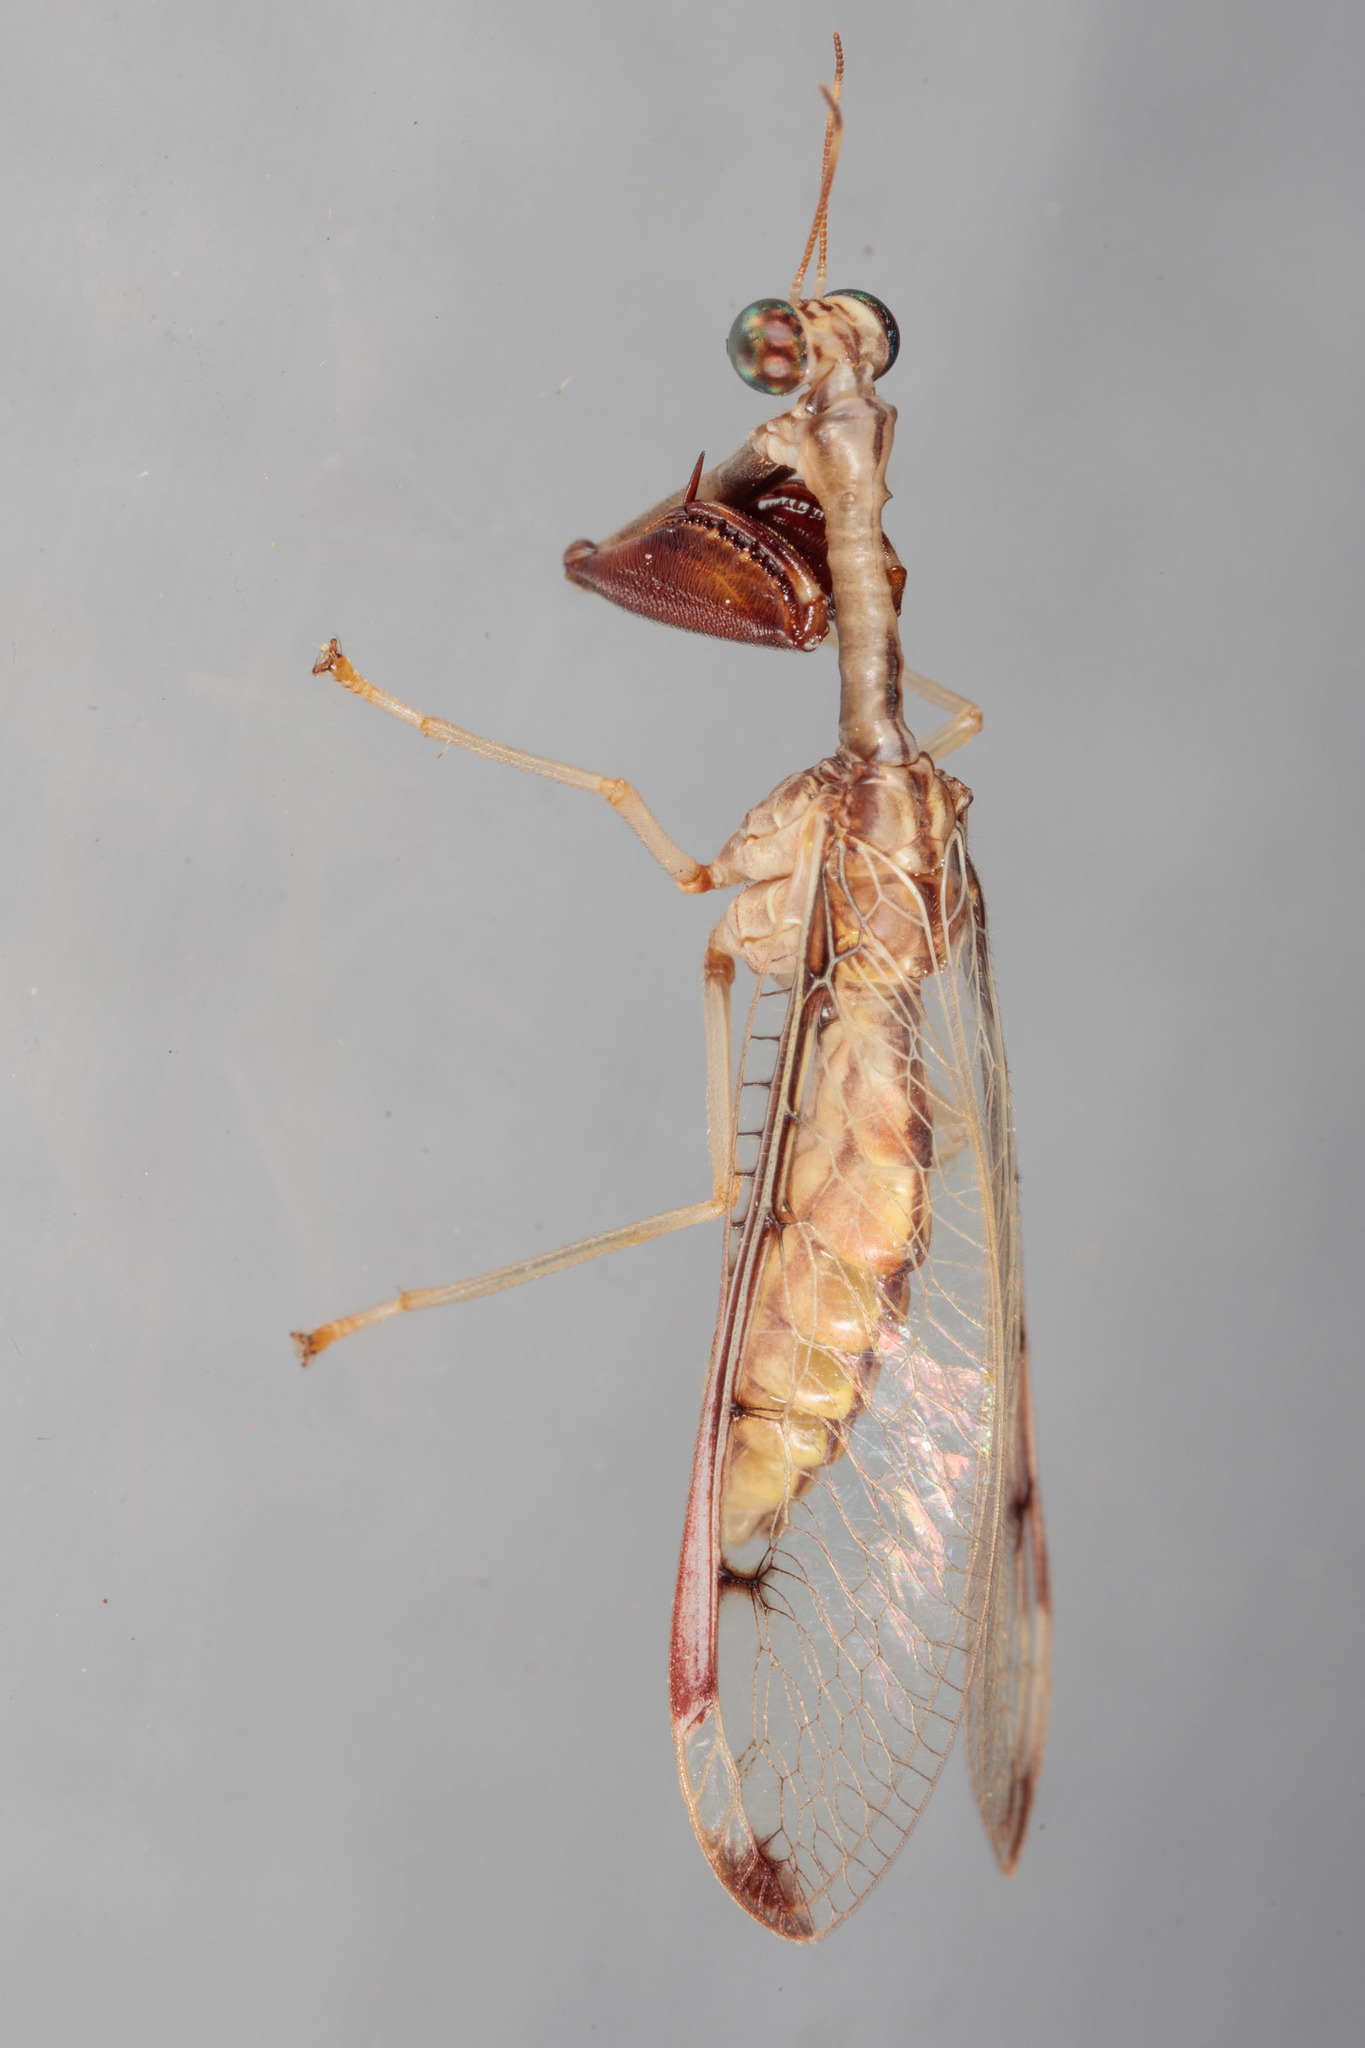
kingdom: Animalia
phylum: Arthropoda
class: Insecta
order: Neuroptera
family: Mantispidae
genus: Dicromantispa
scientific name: Dicromantispa interrupta
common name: Four-spotted mantidfly
